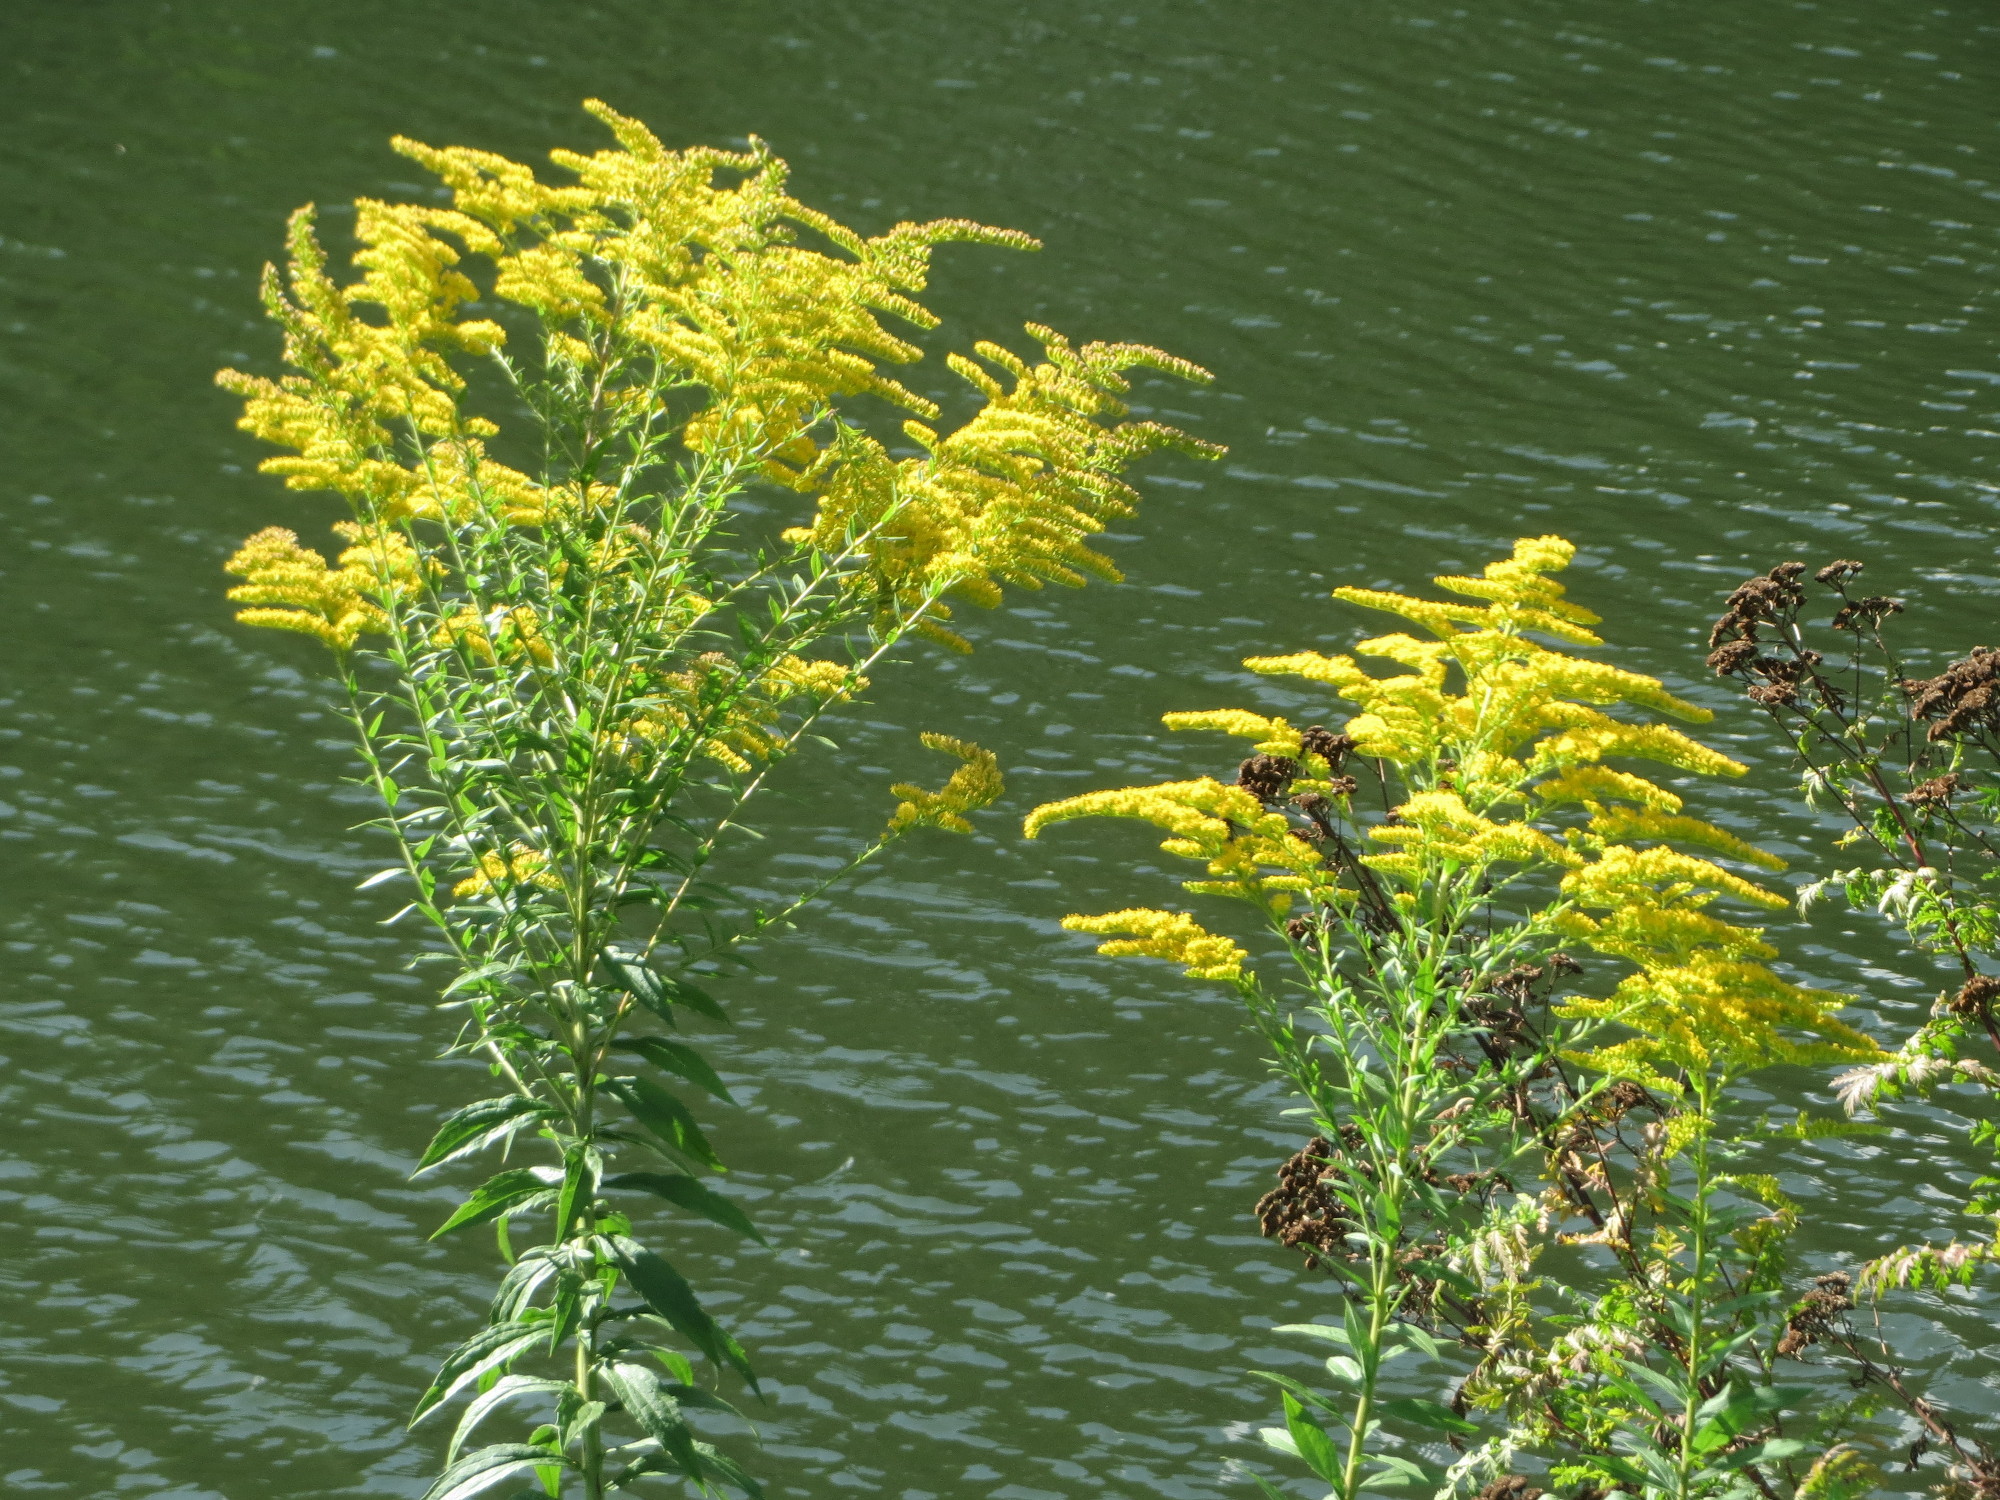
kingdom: Plantae
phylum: Tracheophyta
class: Magnoliopsida
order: Asterales
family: Asteraceae
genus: Solidago
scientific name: Solidago canadensis
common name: Canada goldenrod
